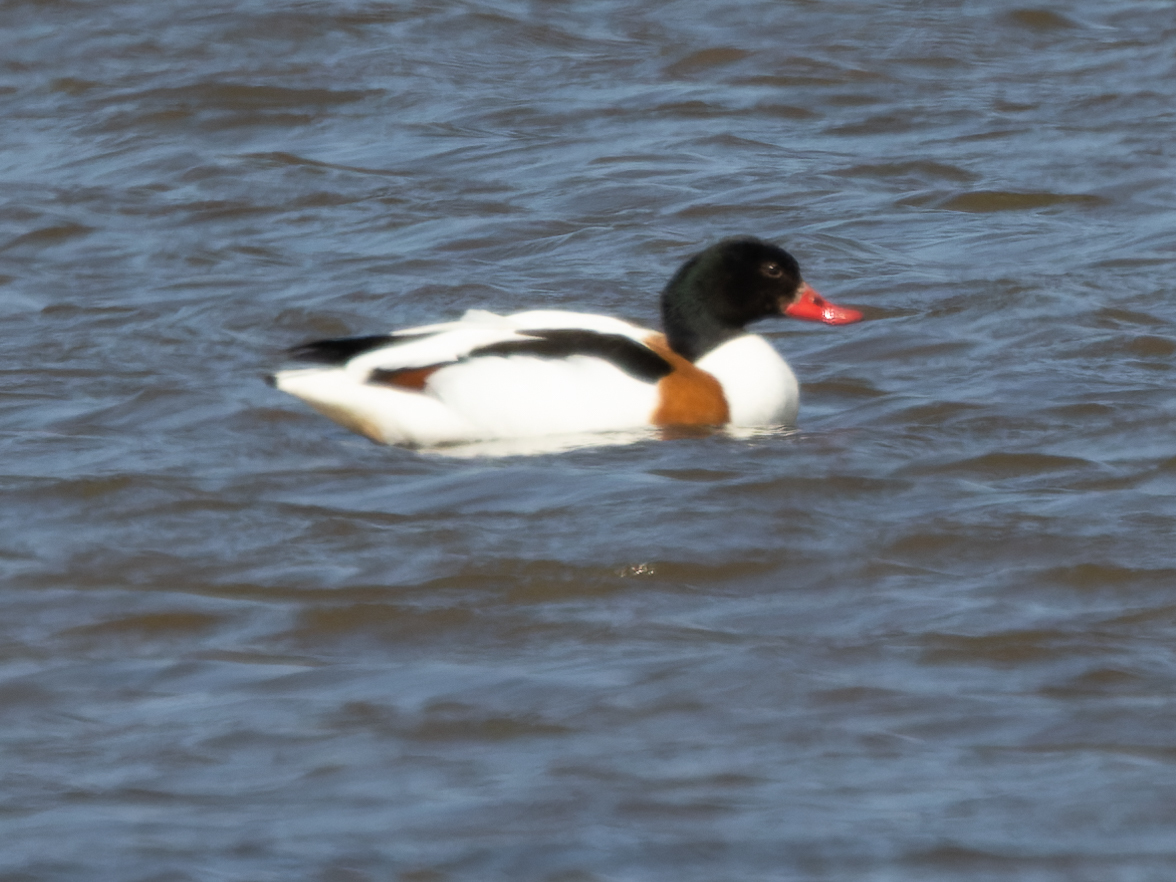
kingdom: Animalia
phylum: Chordata
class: Aves
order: Anseriformes
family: Anatidae
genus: Tadorna
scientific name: Tadorna tadorna
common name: Common shelduck
